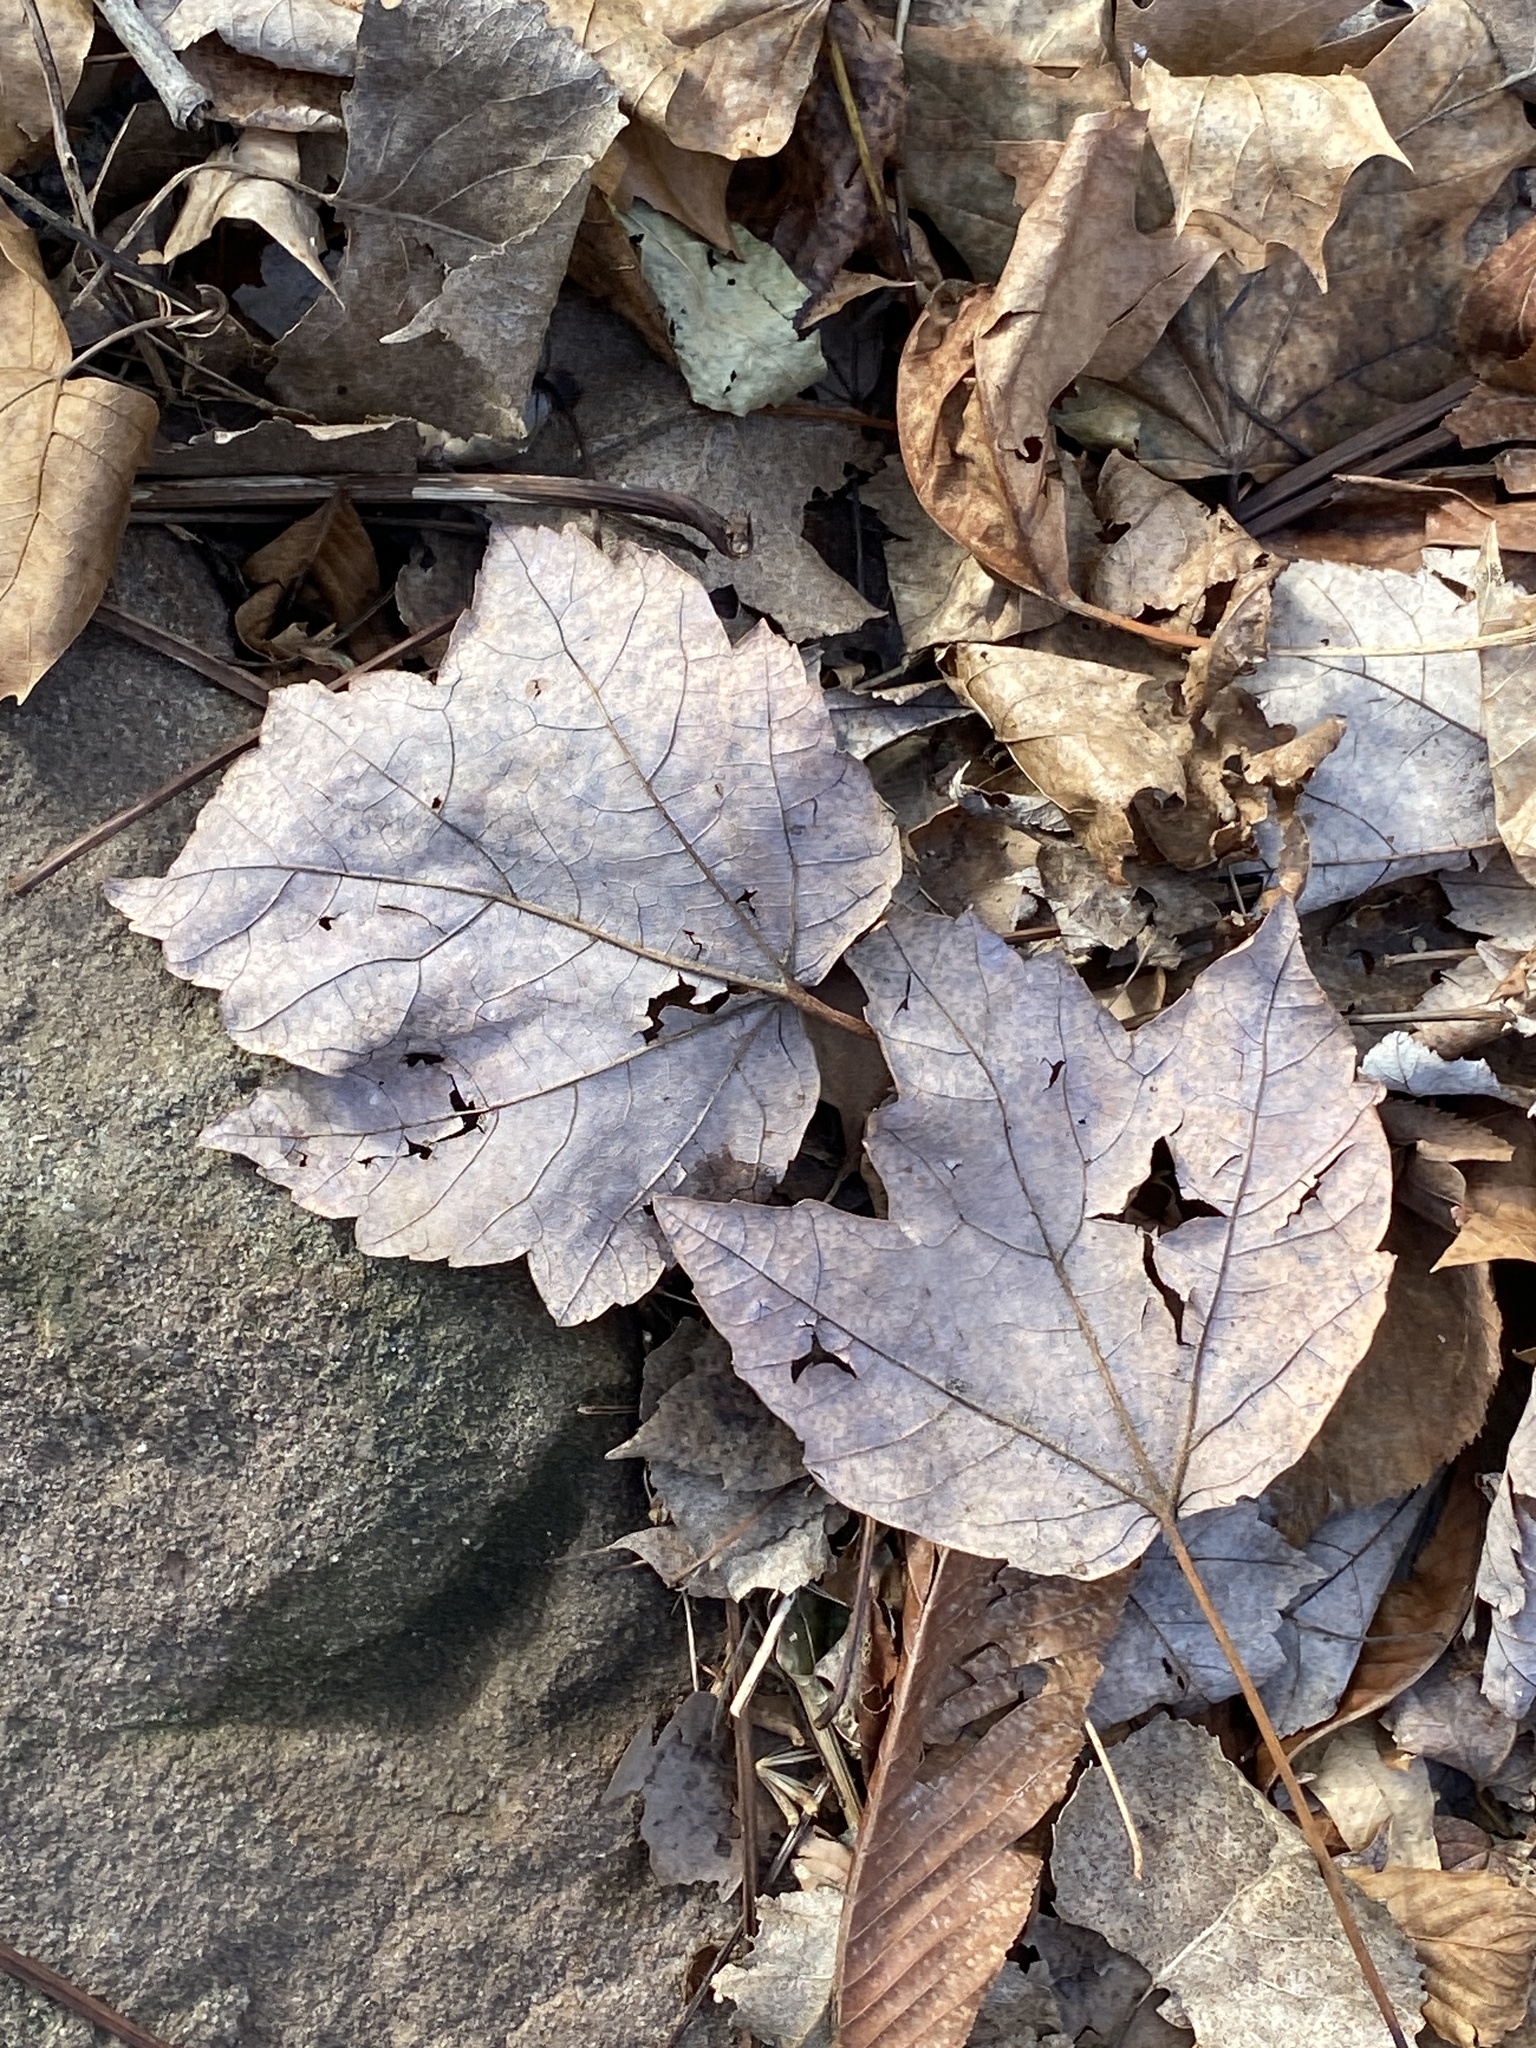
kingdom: Plantae
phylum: Tracheophyta
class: Magnoliopsida
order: Sapindales
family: Sapindaceae
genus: Acer
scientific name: Acer rubrum
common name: Red maple
